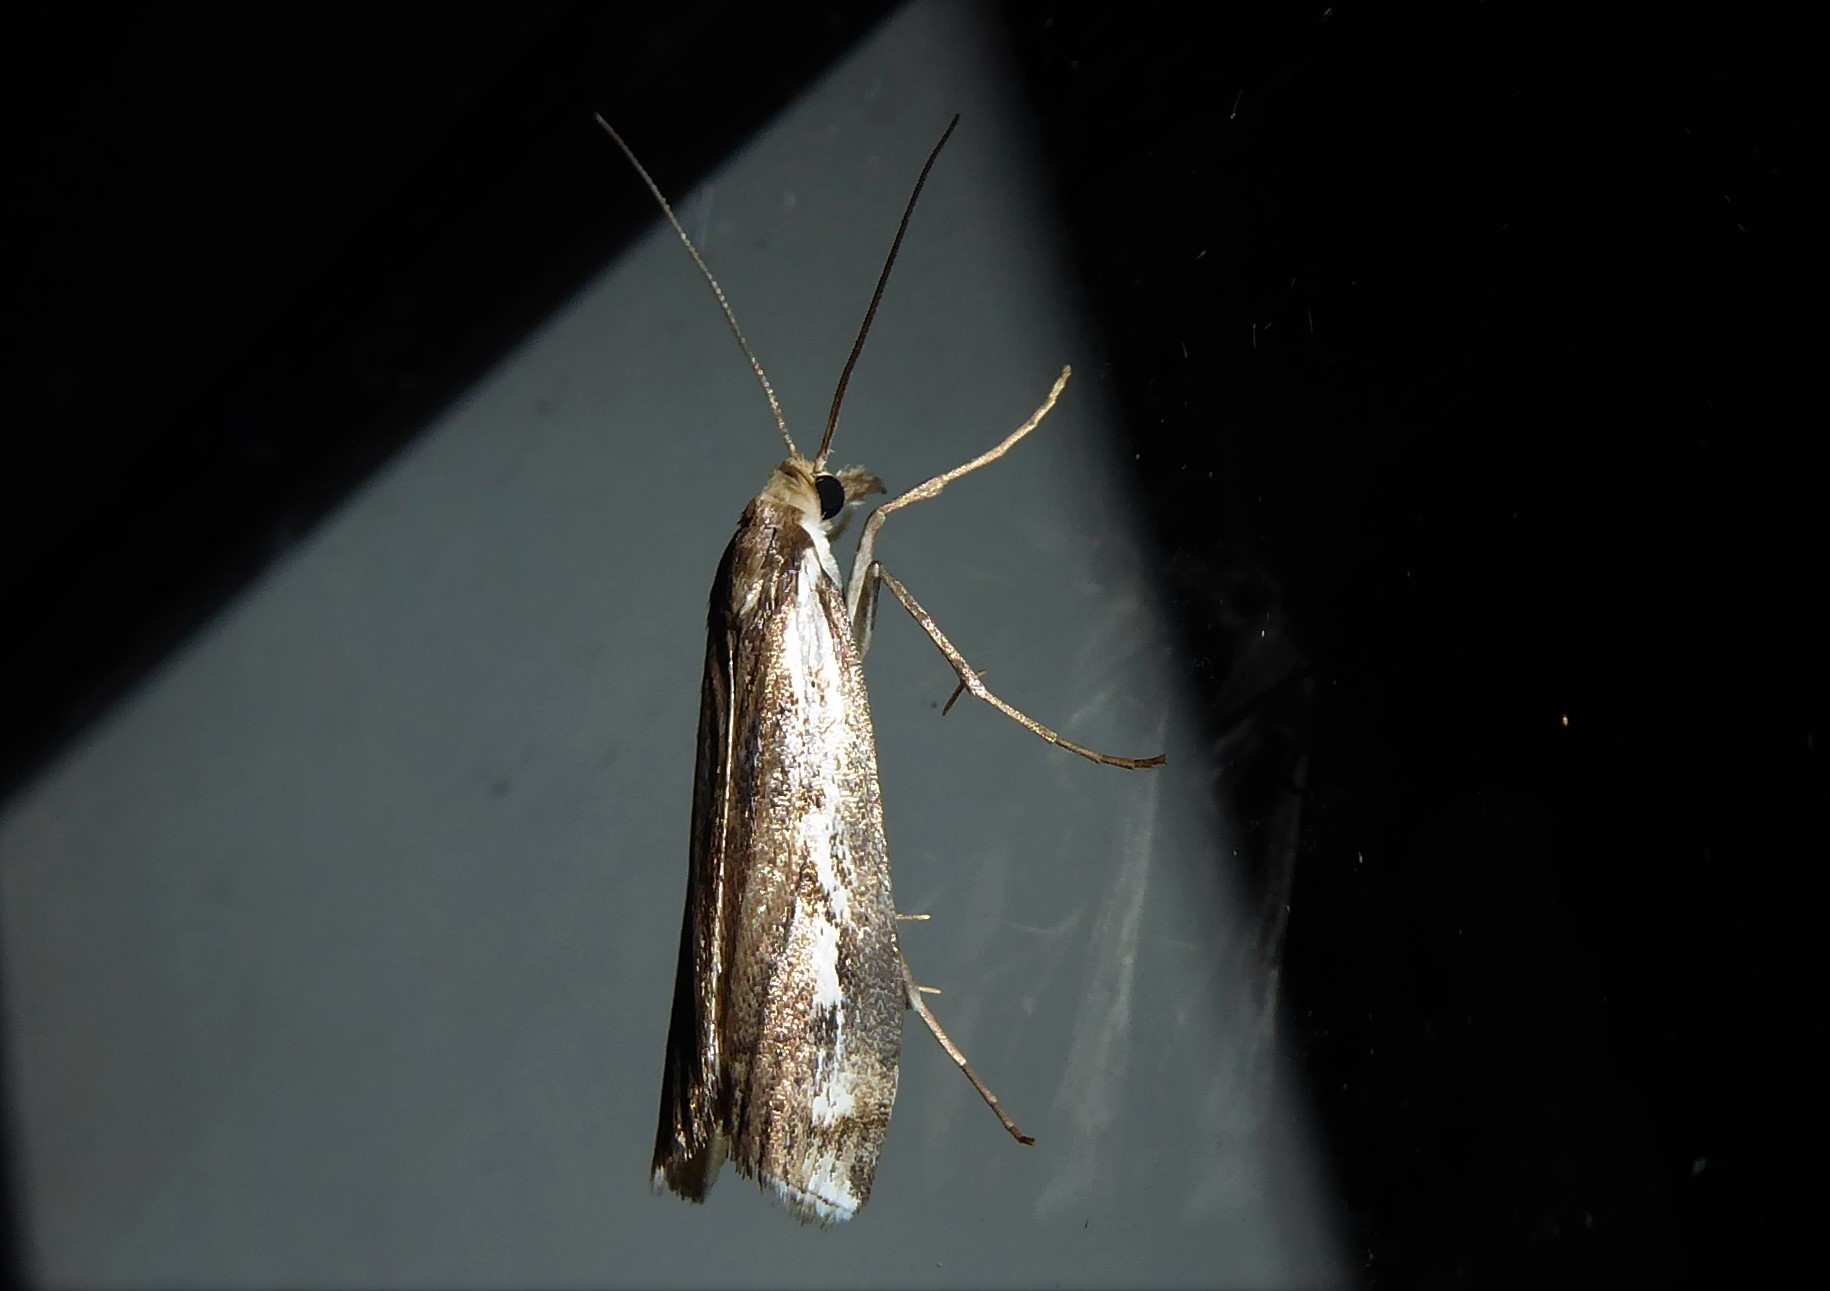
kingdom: Animalia
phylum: Arthropoda
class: Insecta
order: Lepidoptera
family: Crambidae
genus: Orocrambus
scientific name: Orocrambus vulgaris
